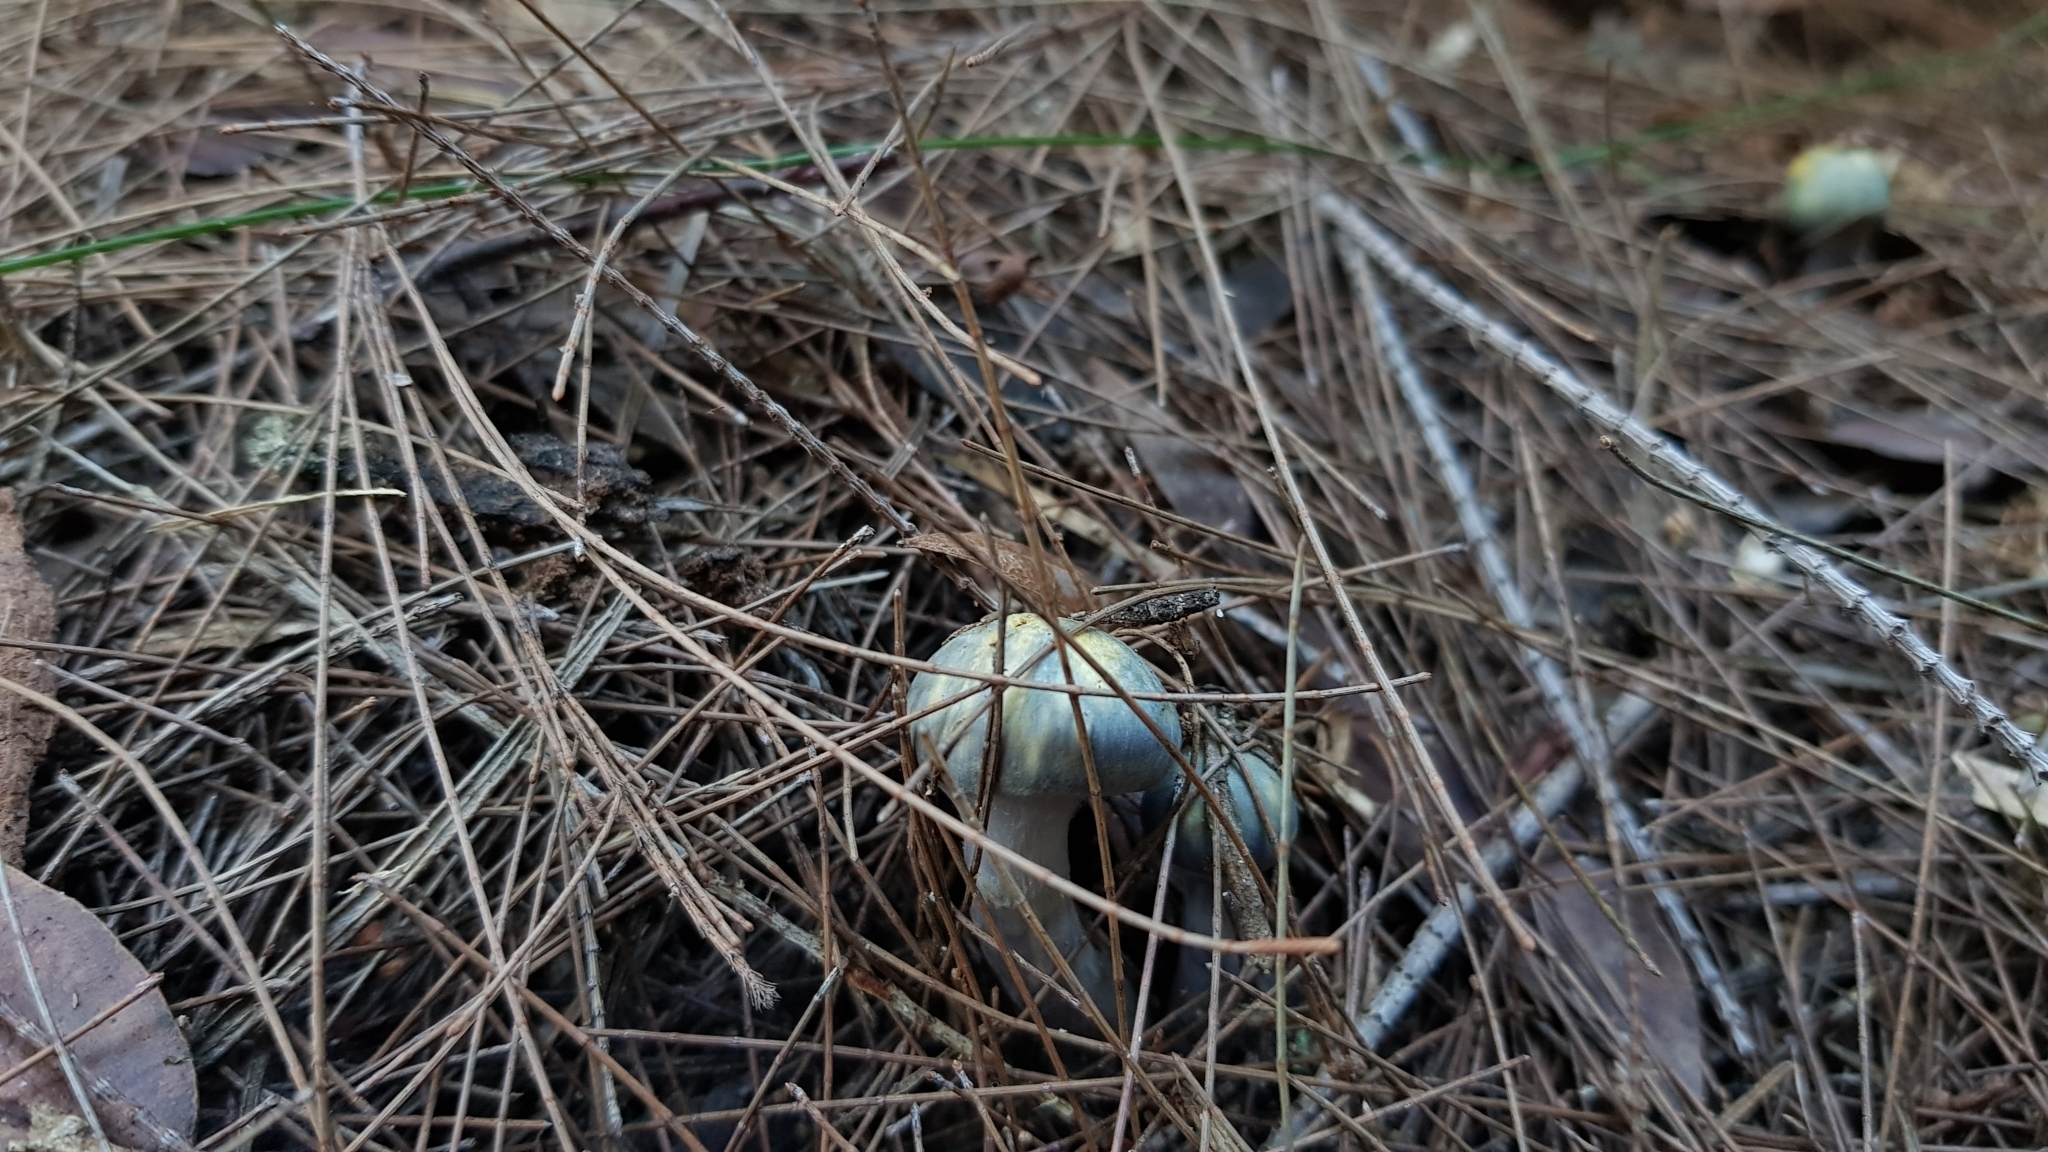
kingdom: Fungi
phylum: Basidiomycota
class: Agaricomycetes
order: Agaricales
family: Cortinariaceae
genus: Cortinarius
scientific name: Cortinarius rotundisporus
